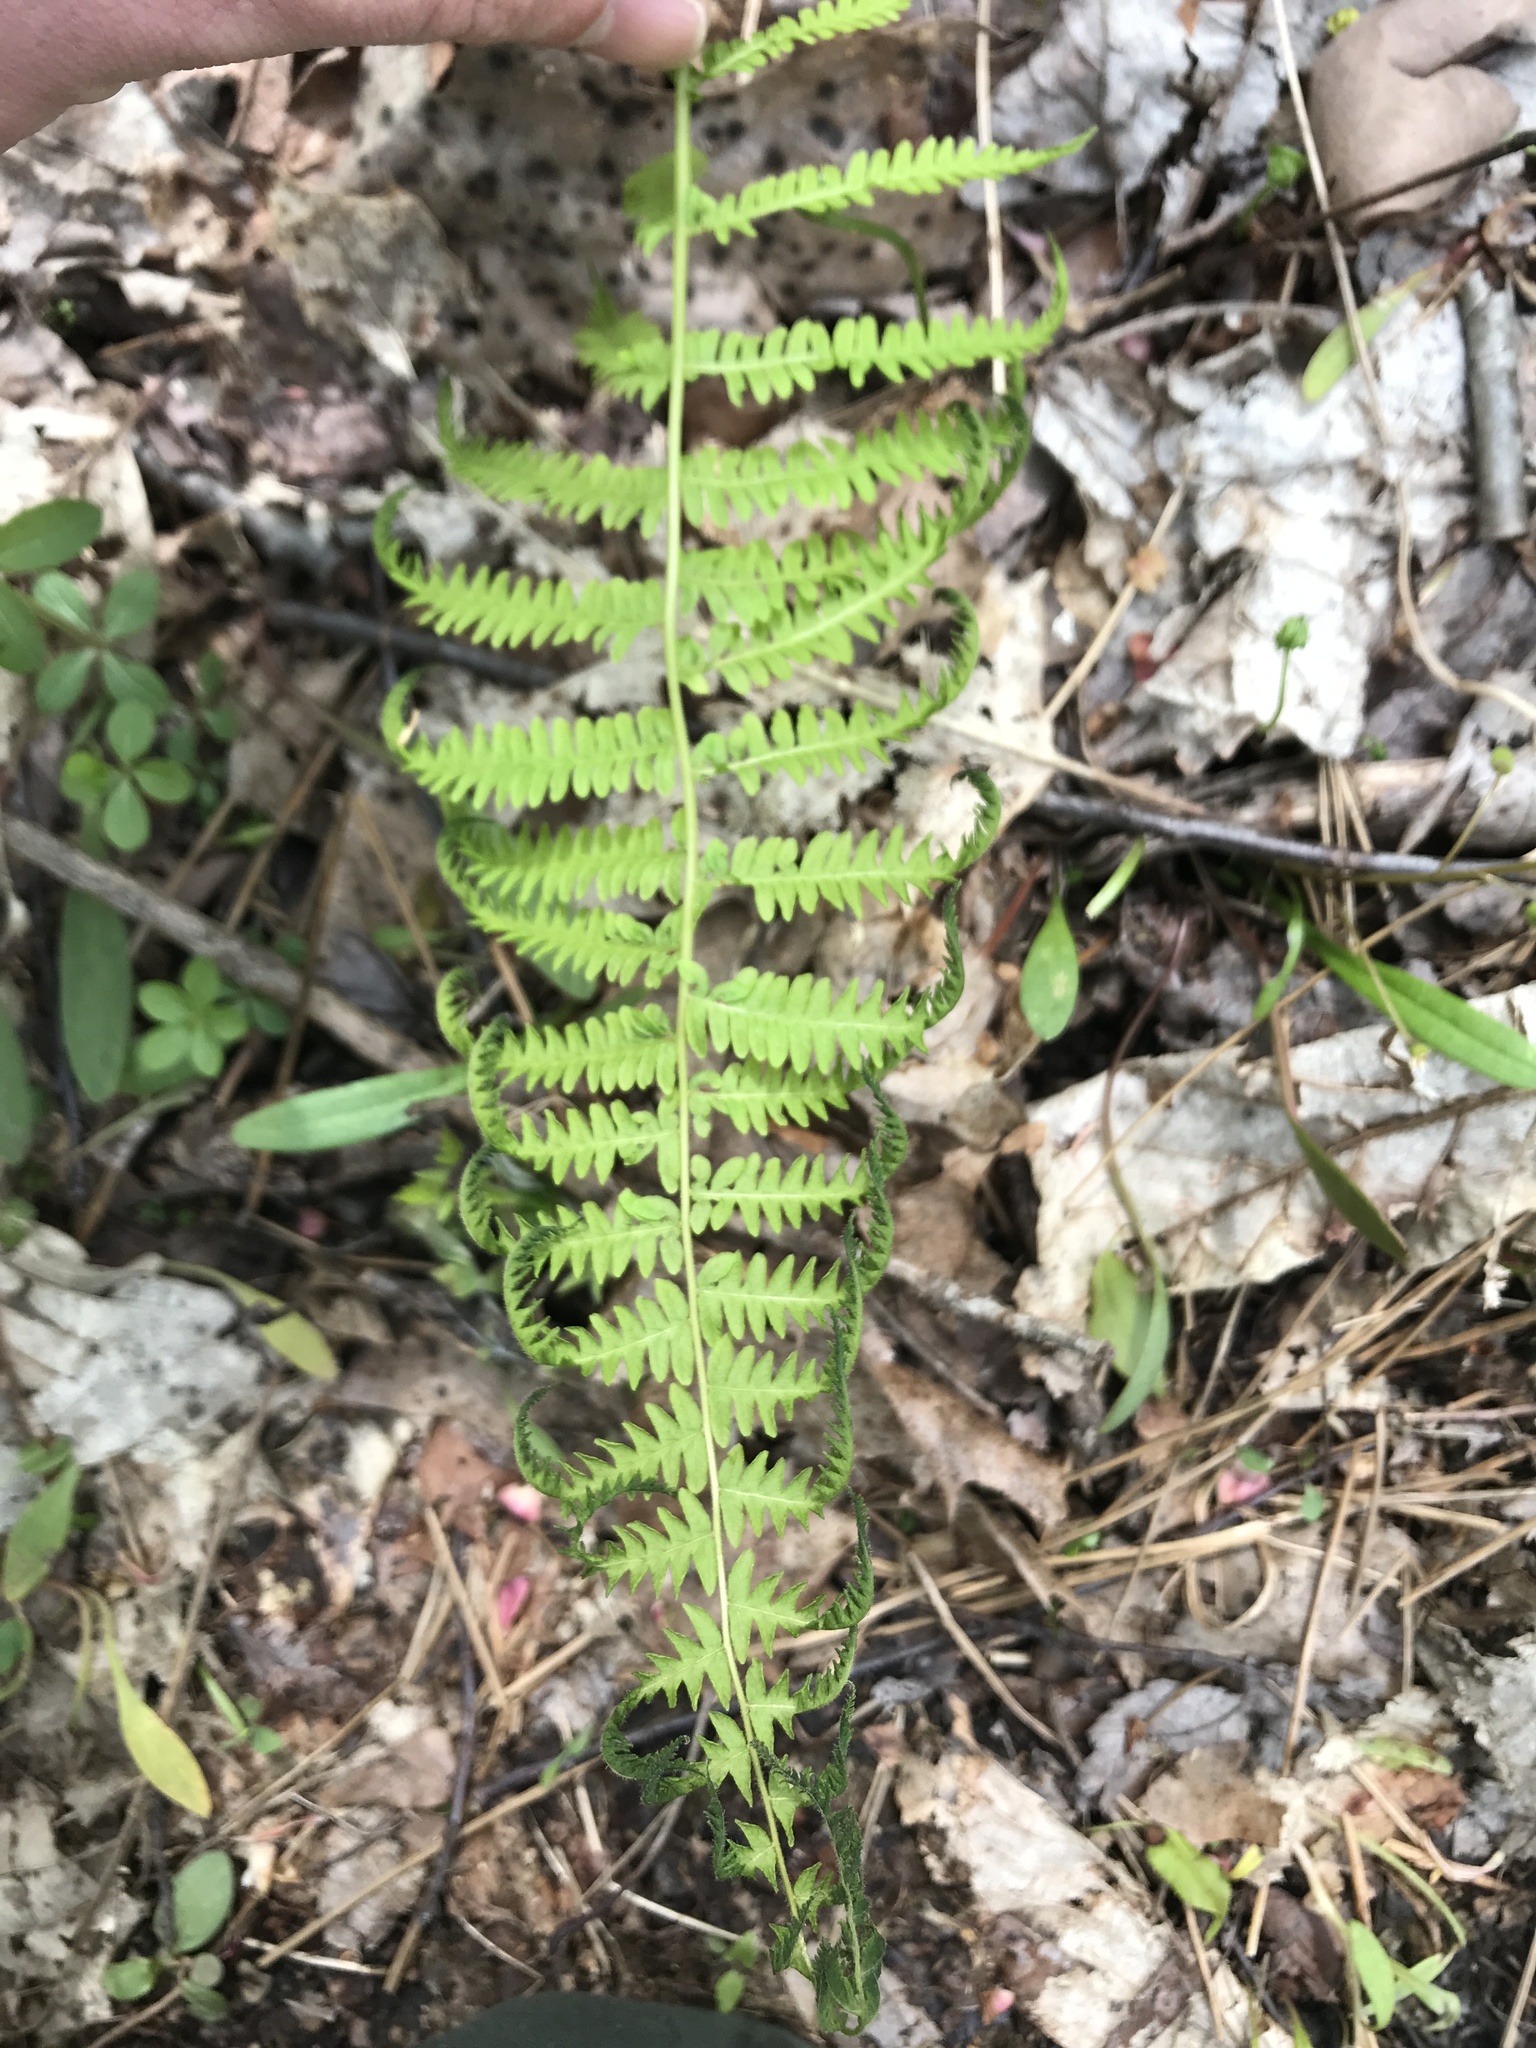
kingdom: Plantae
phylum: Tracheophyta
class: Polypodiopsida
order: Polypodiales
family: Thelypteridaceae
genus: Amauropelta
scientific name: Amauropelta noveboracensis
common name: New york fern
